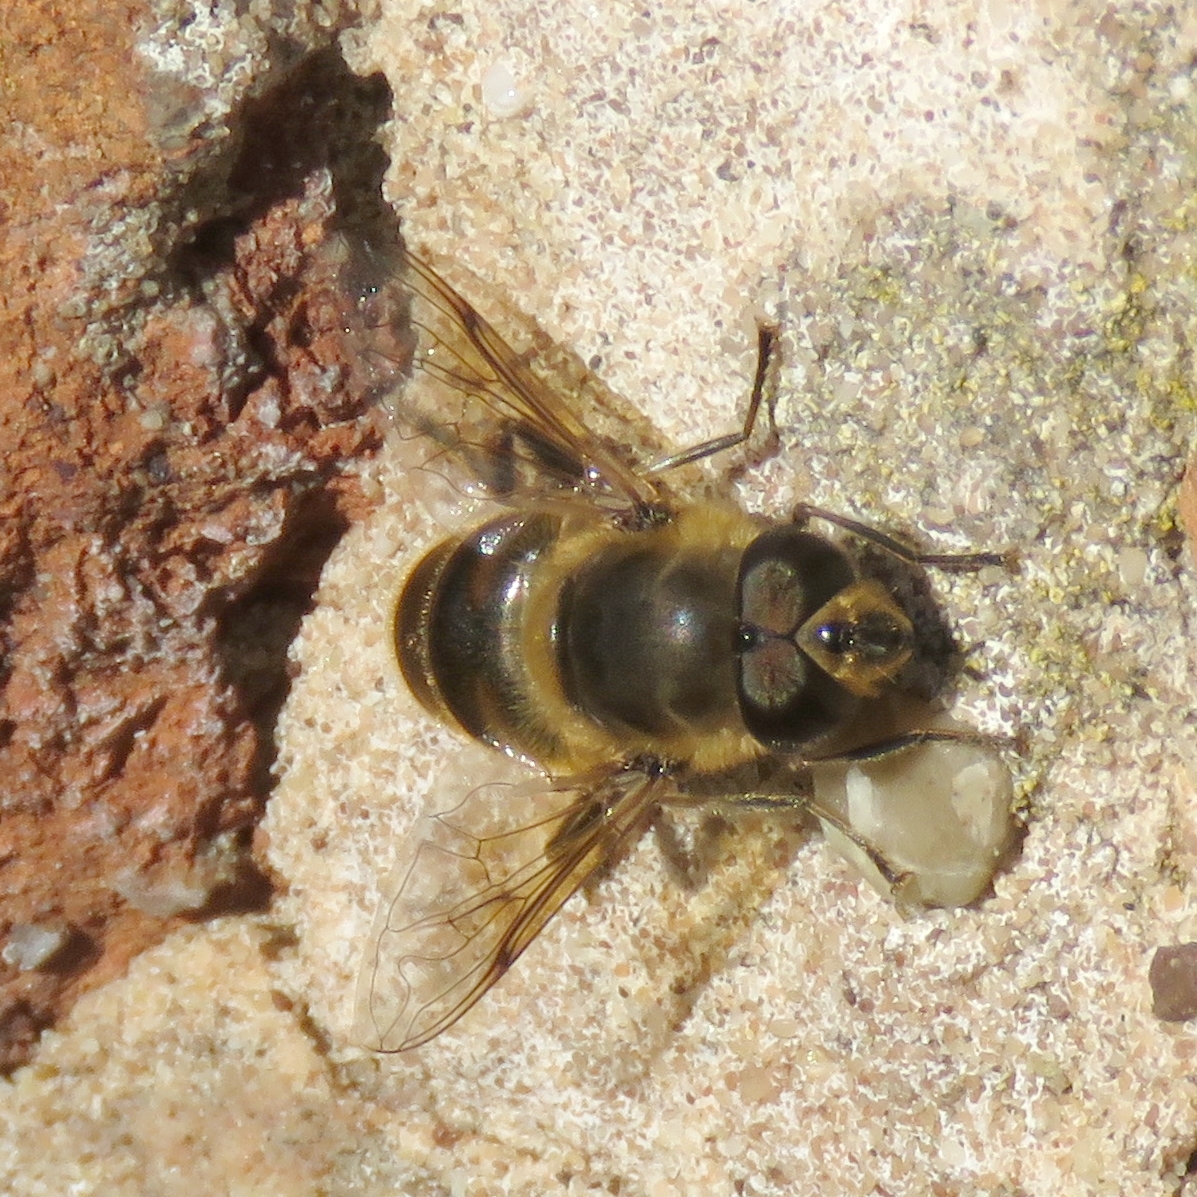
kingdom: Animalia
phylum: Arthropoda
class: Insecta
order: Diptera
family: Syrphidae
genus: Eristalis
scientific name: Eristalis tenax
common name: Drone fly
